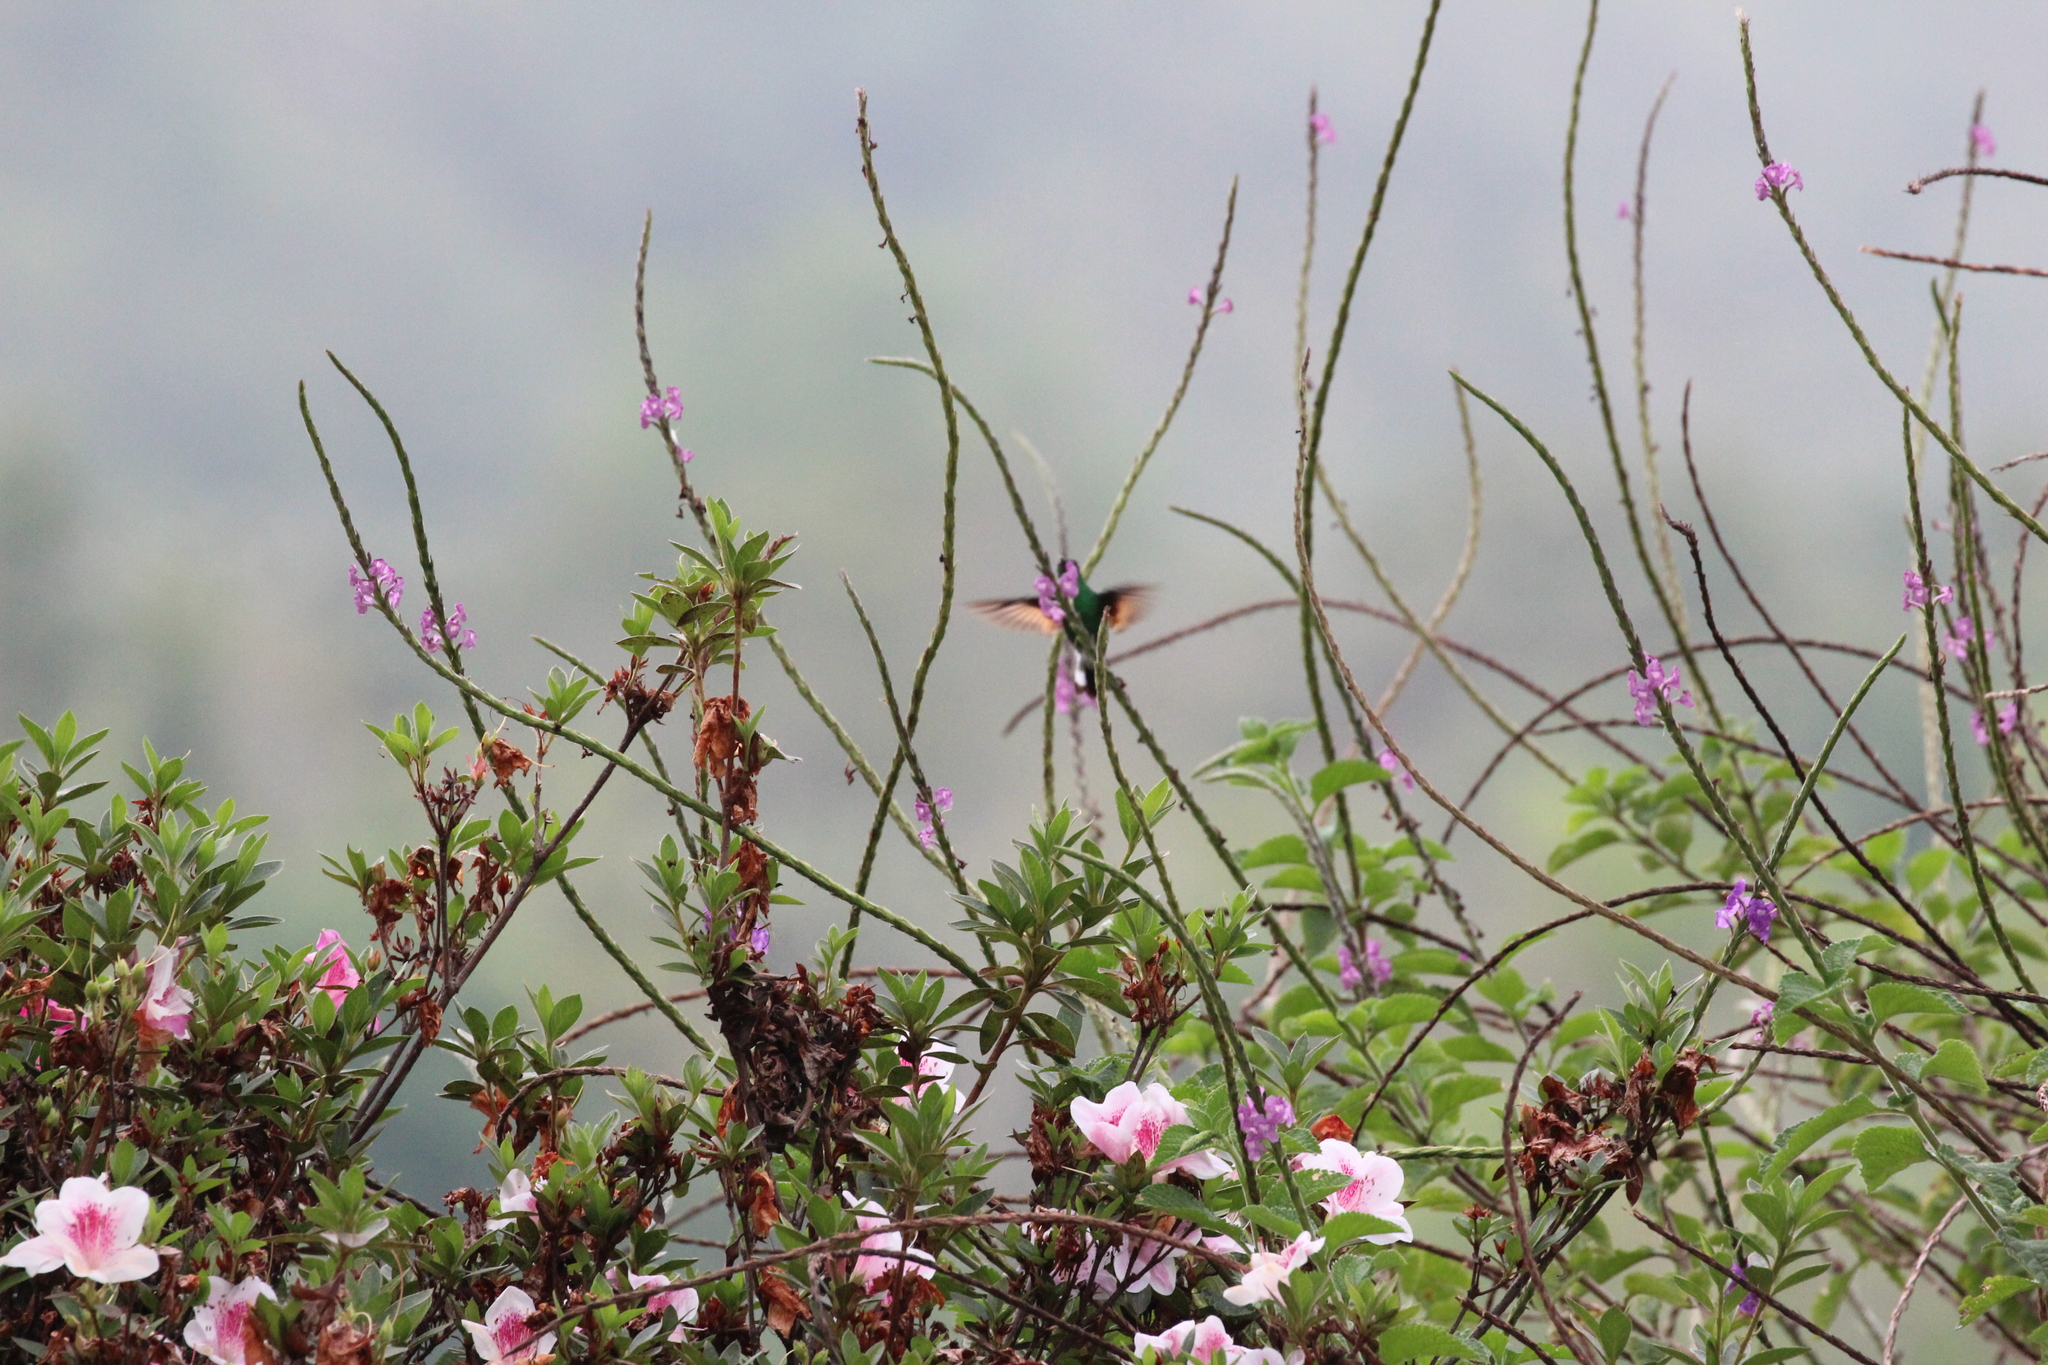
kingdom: Animalia
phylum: Chordata
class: Aves
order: Apodiformes
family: Trochilidae
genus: Eupherusa
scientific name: Eupherusa eximia
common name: Stripe-tailed hummingbird
